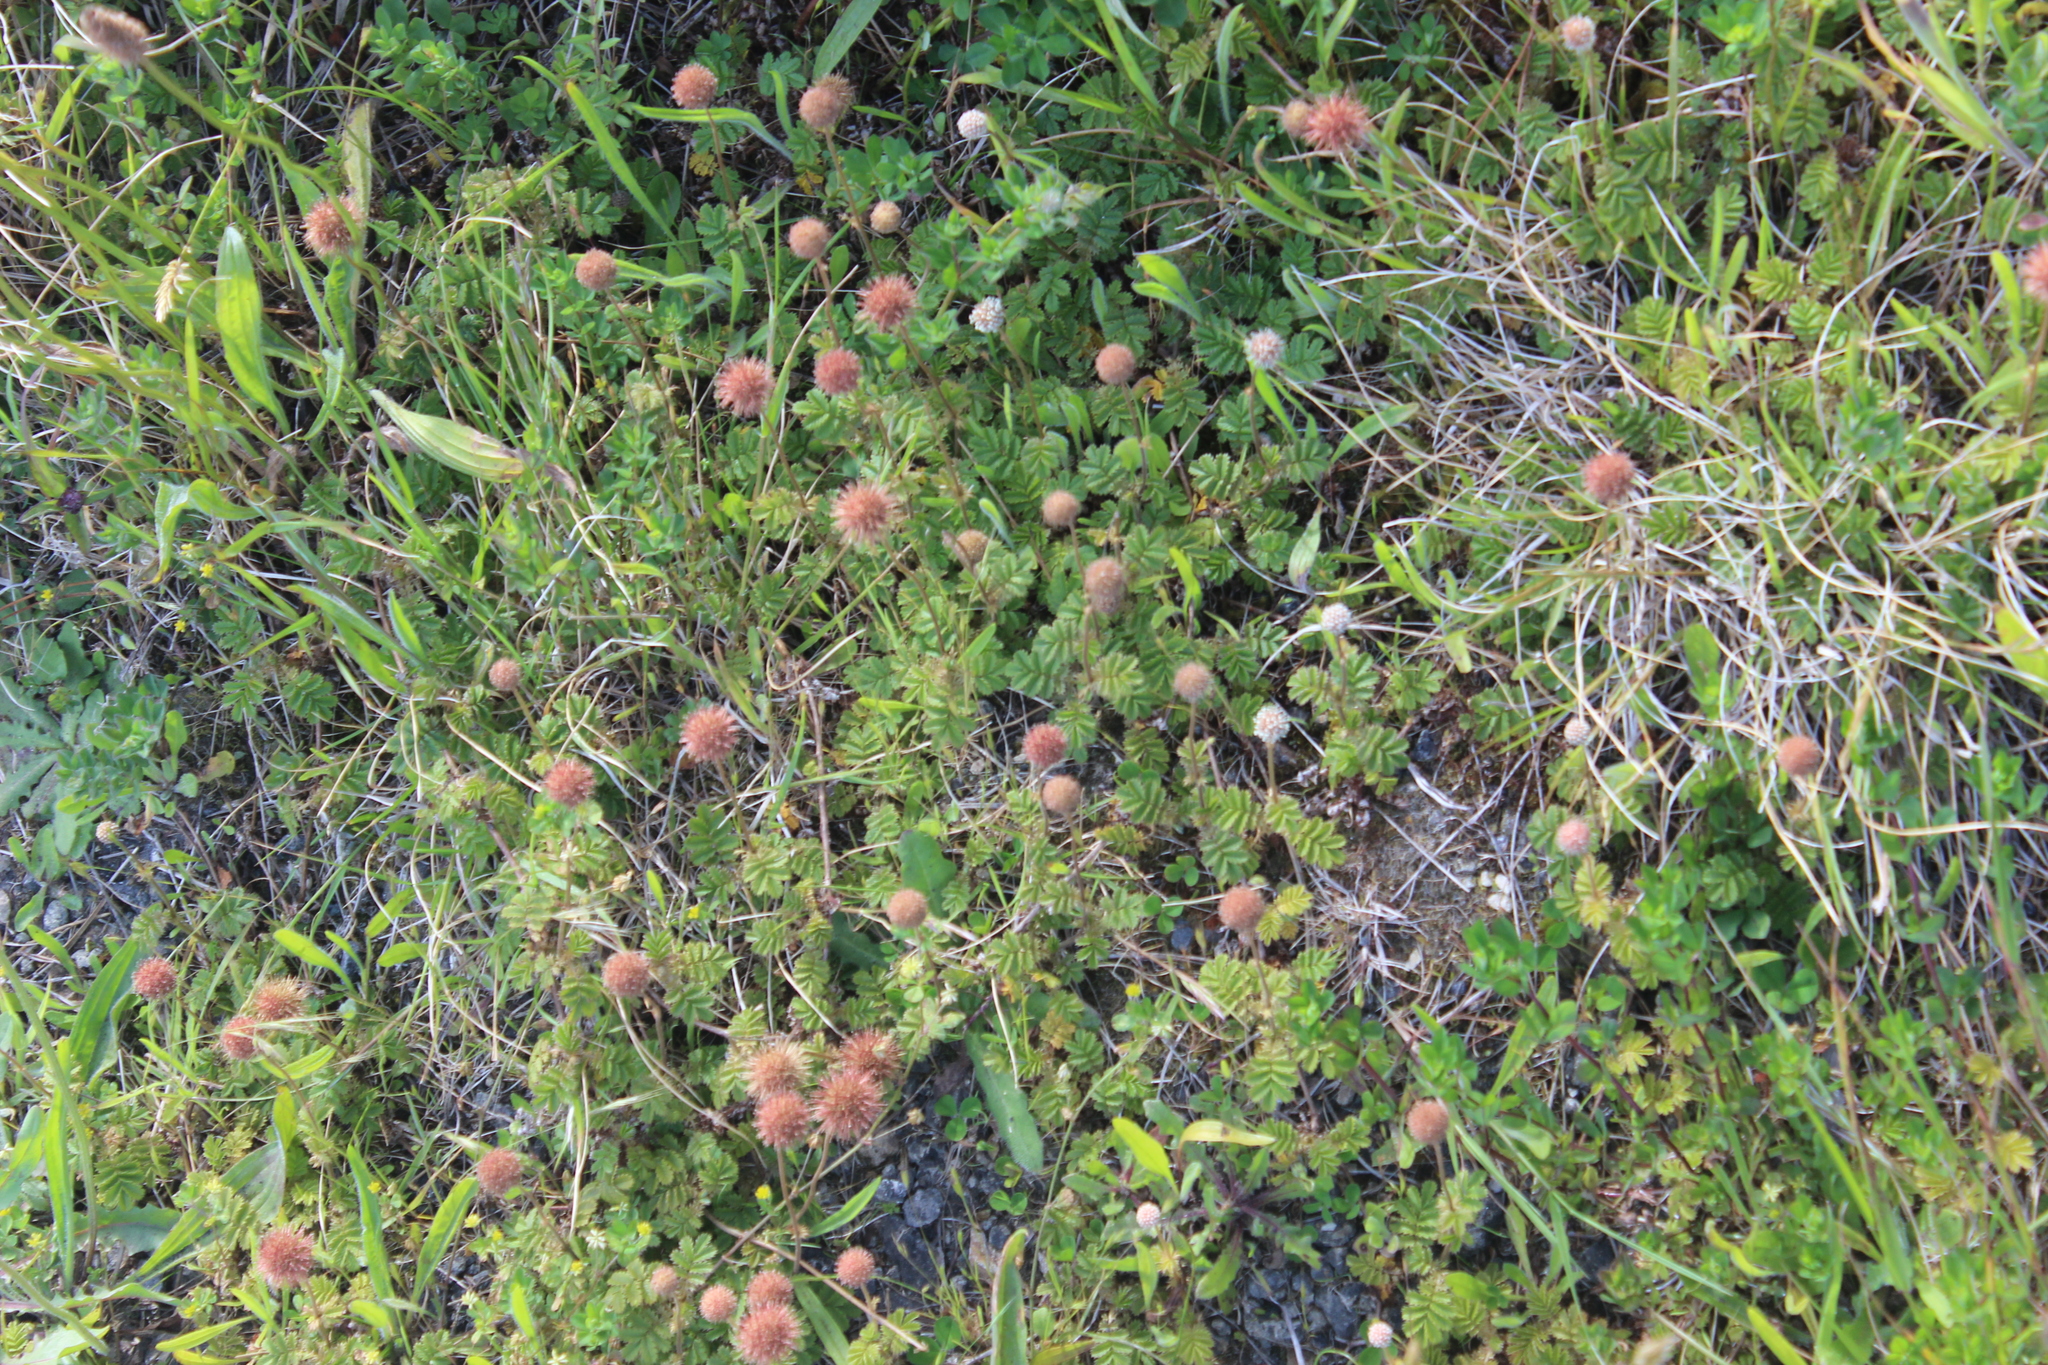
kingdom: Plantae
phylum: Tracheophyta
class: Magnoliopsida
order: Rosales
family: Rosaceae
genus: Acaena
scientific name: Acaena anserinifolia
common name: Bronze pirri-pirri-bur
